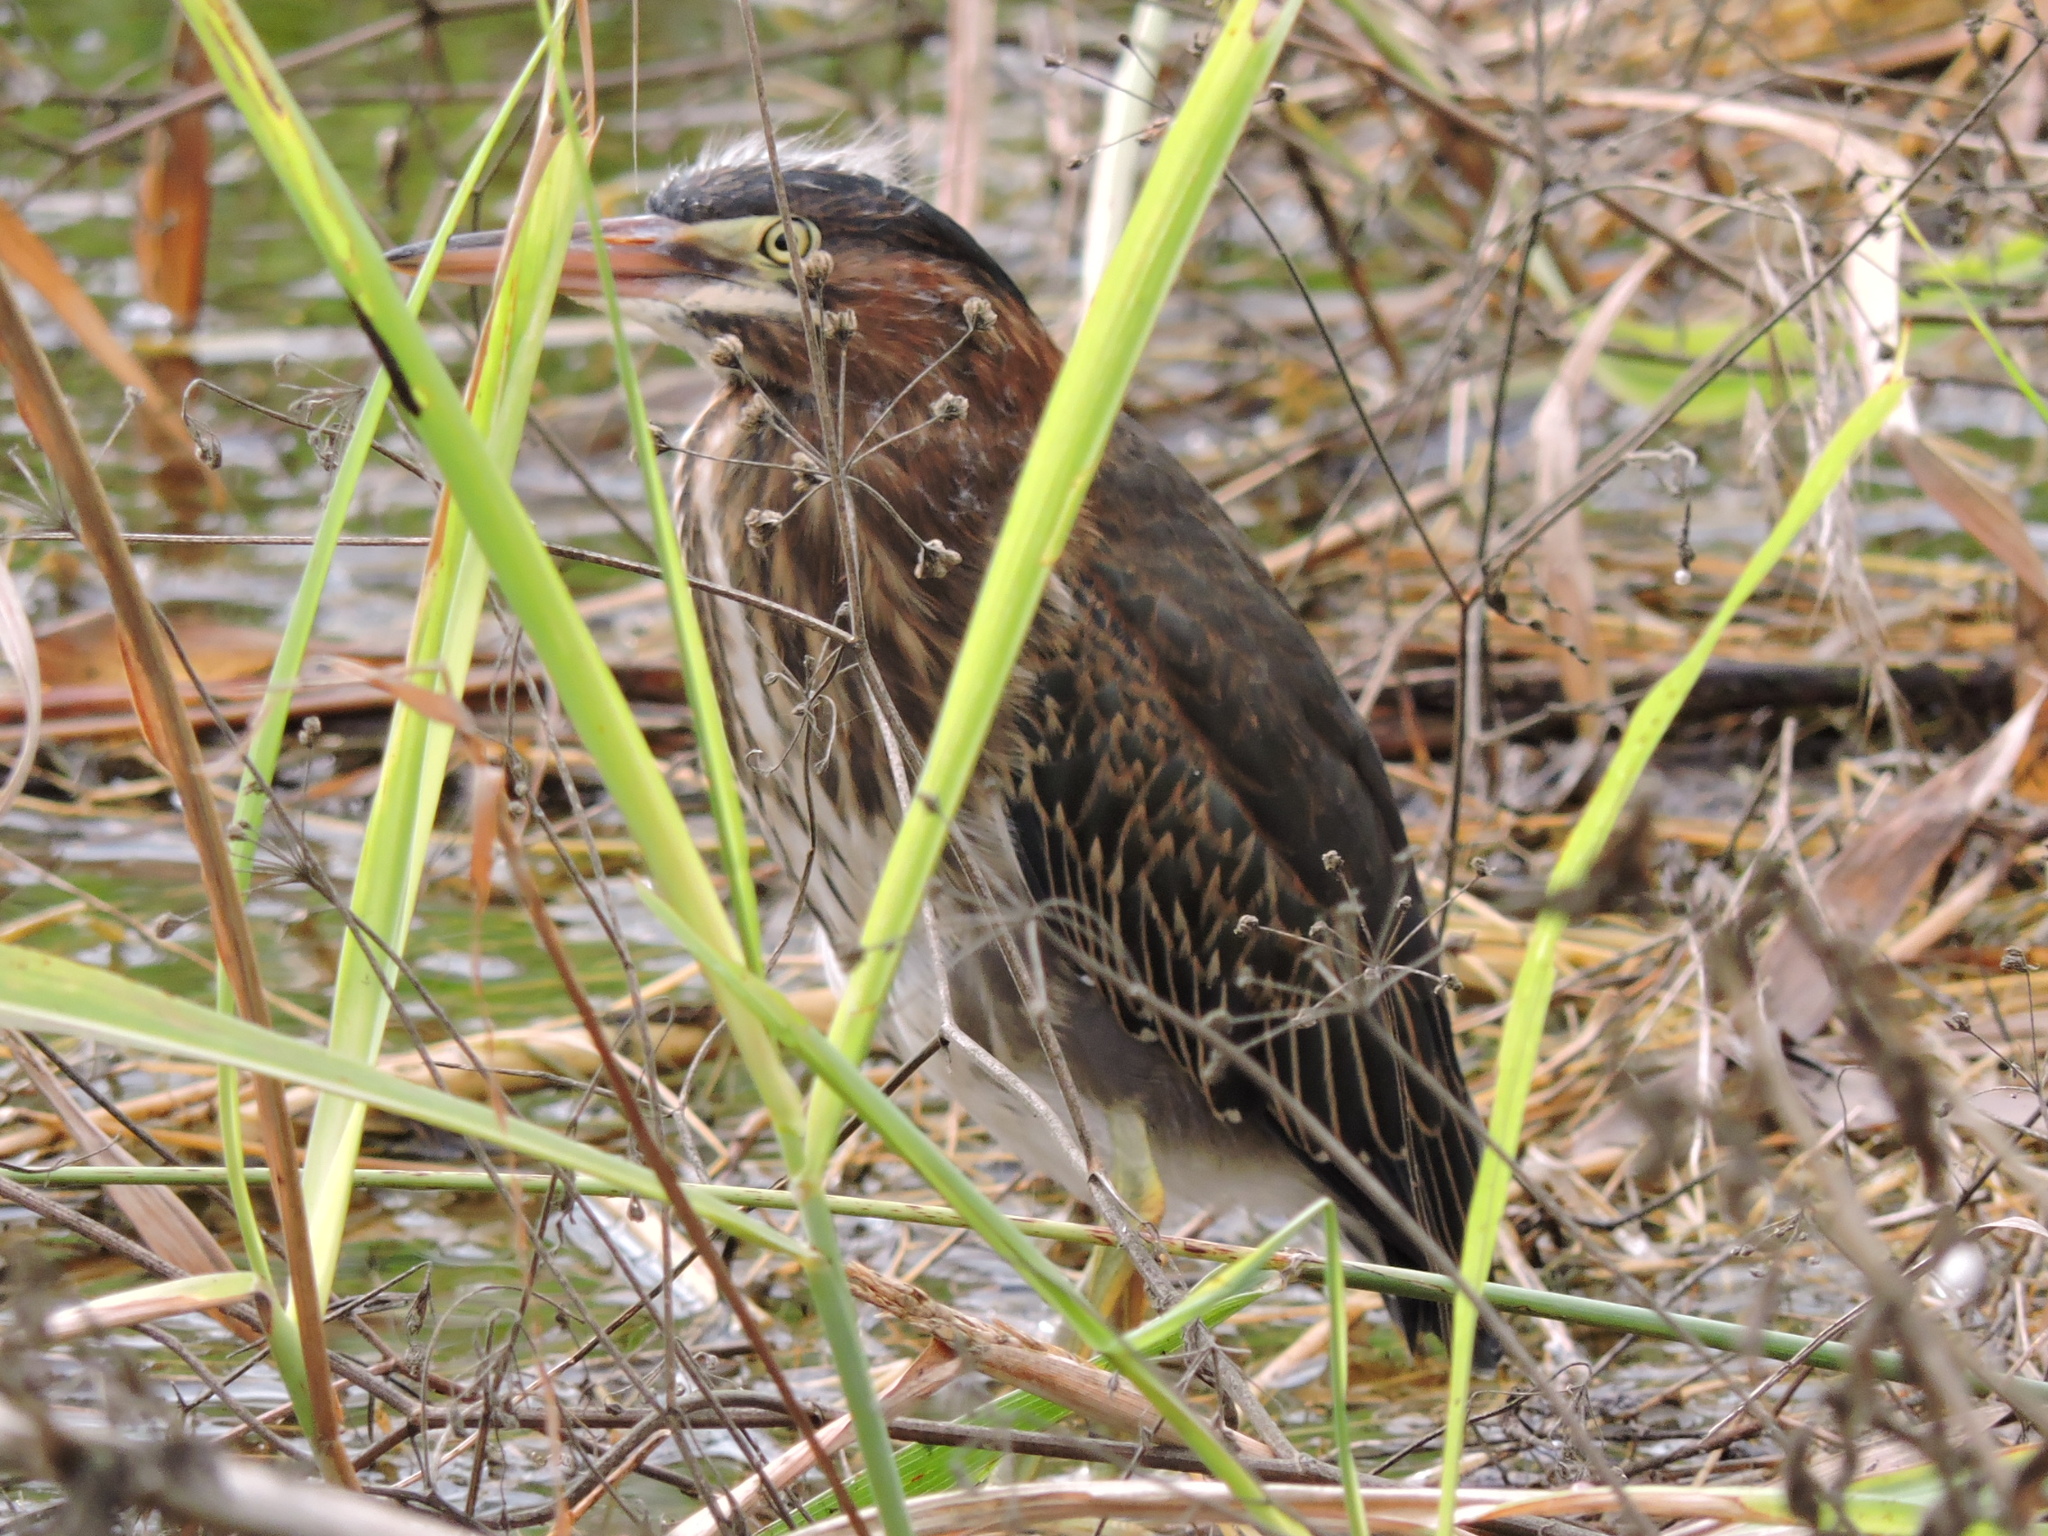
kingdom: Animalia
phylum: Chordata
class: Aves
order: Pelecaniformes
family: Ardeidae
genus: Butorides
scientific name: Butorides virescens
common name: Green heron
